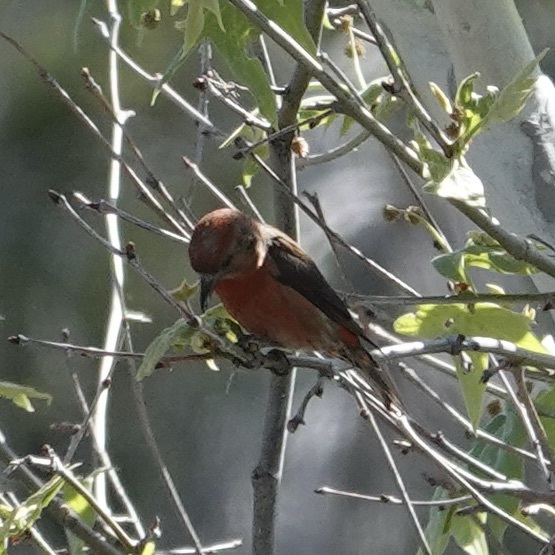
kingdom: Animalia
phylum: Chordata
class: Aves
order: Passeriformes
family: Fringillidae
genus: Loxia
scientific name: Loxia curvirostra
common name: Red crossbill
